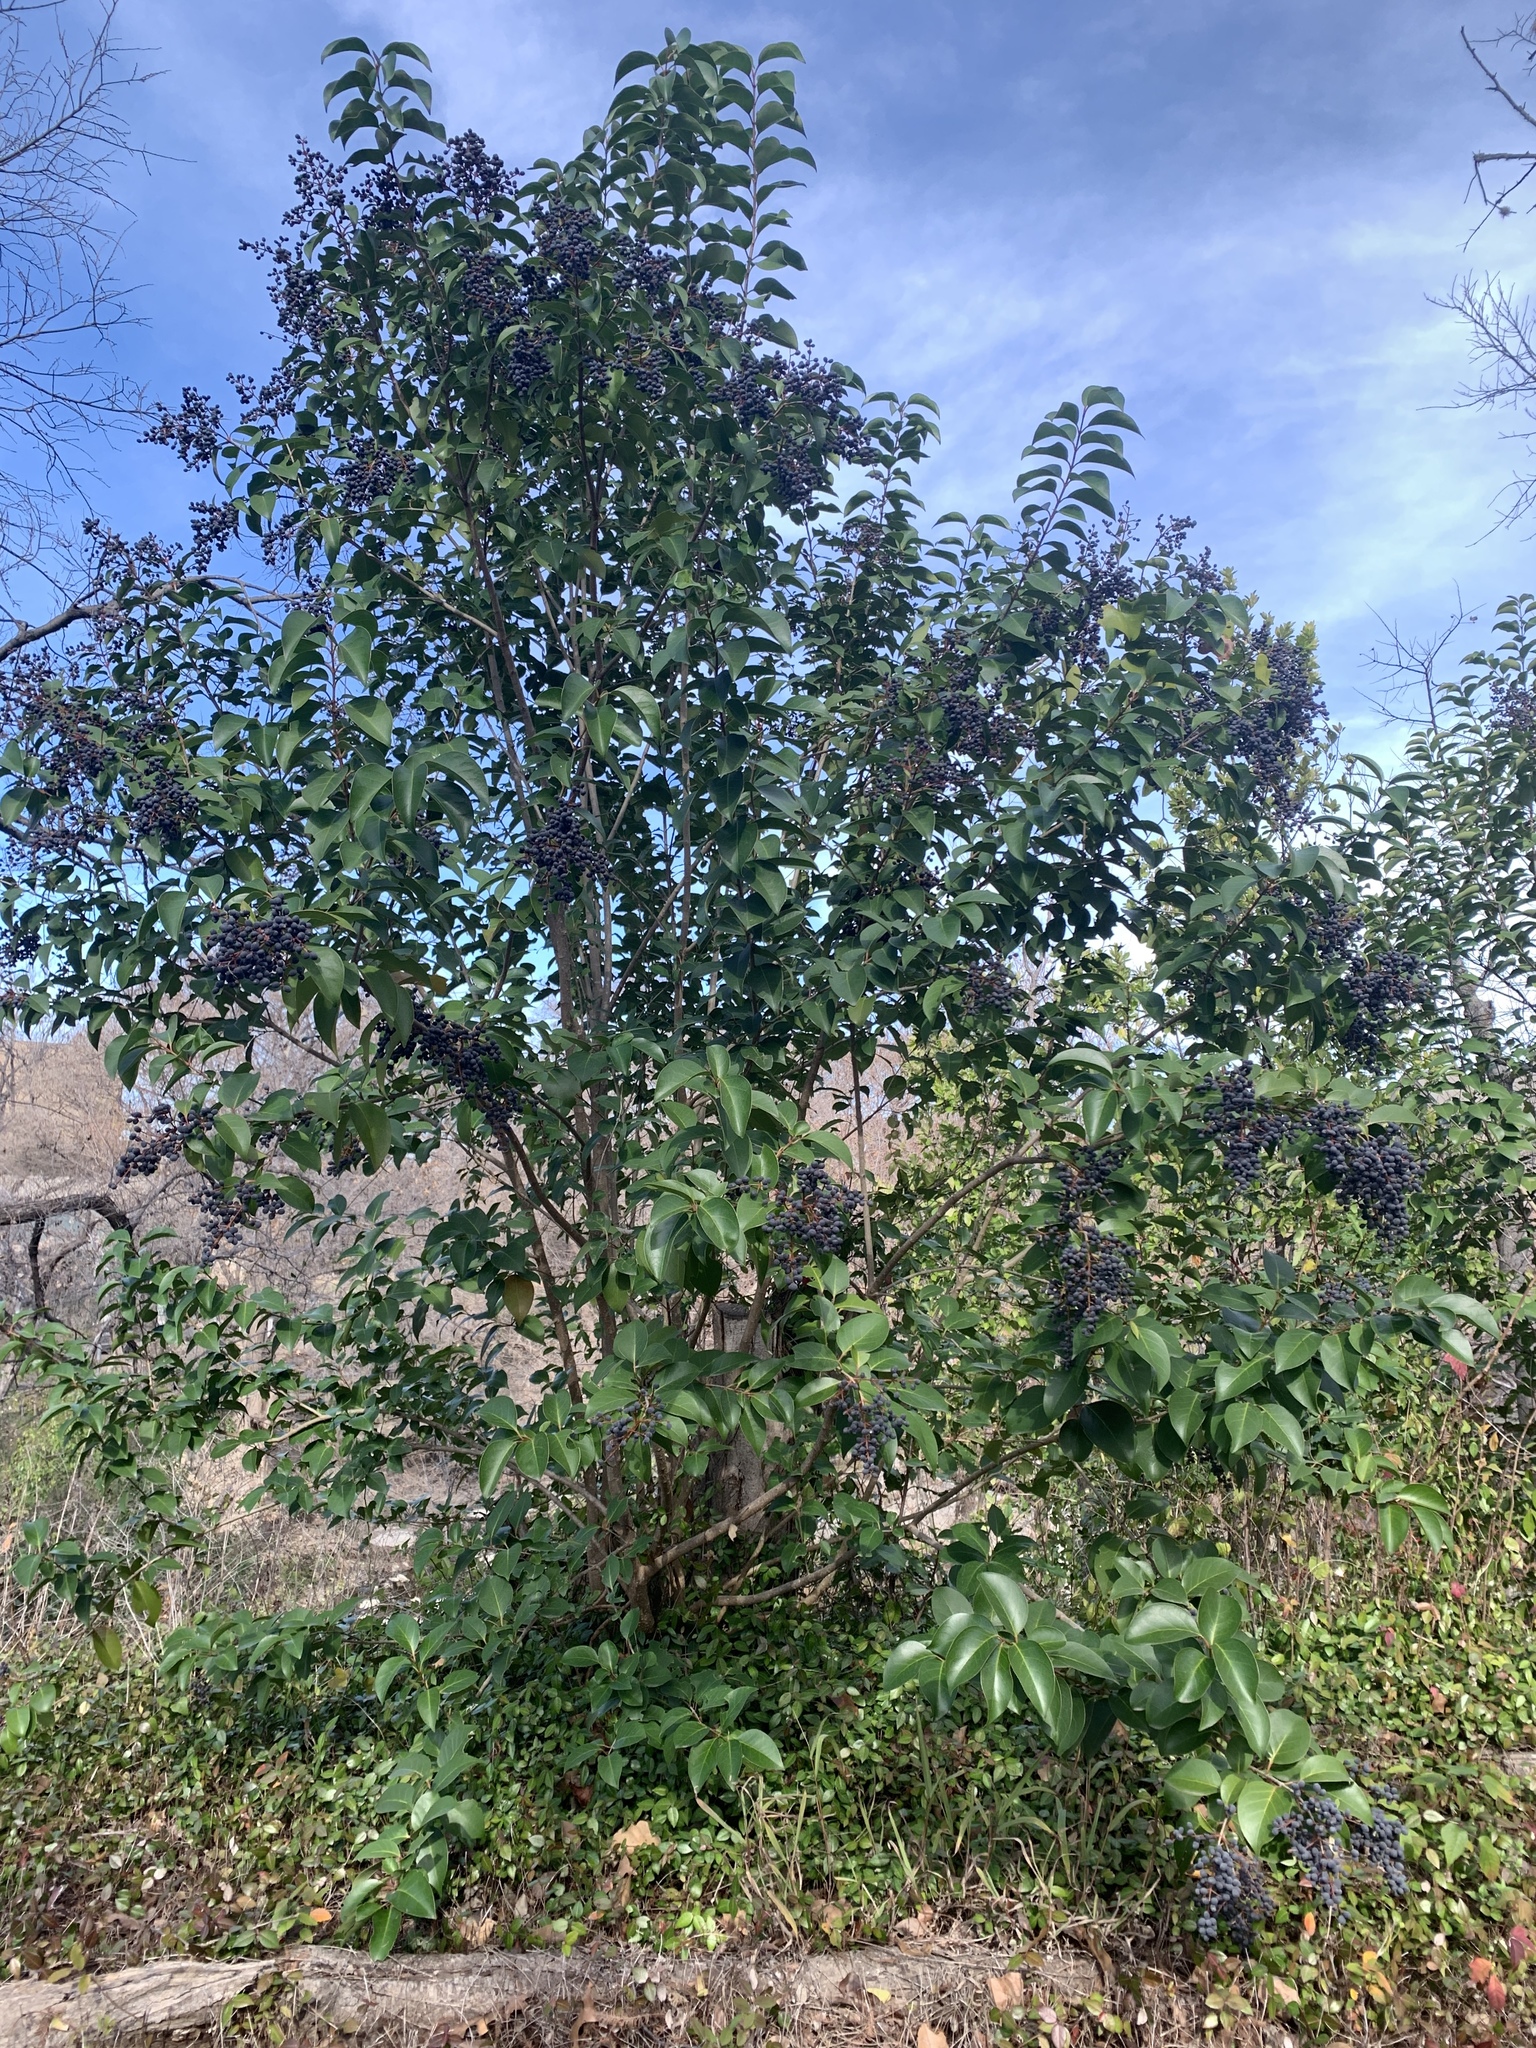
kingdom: Plantae
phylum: Tracheophyta
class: Magnoliopsida
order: Lamiales
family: Oleaceae
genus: Ligustrum
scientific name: Ligustrum lucidum
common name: Glossy privet
